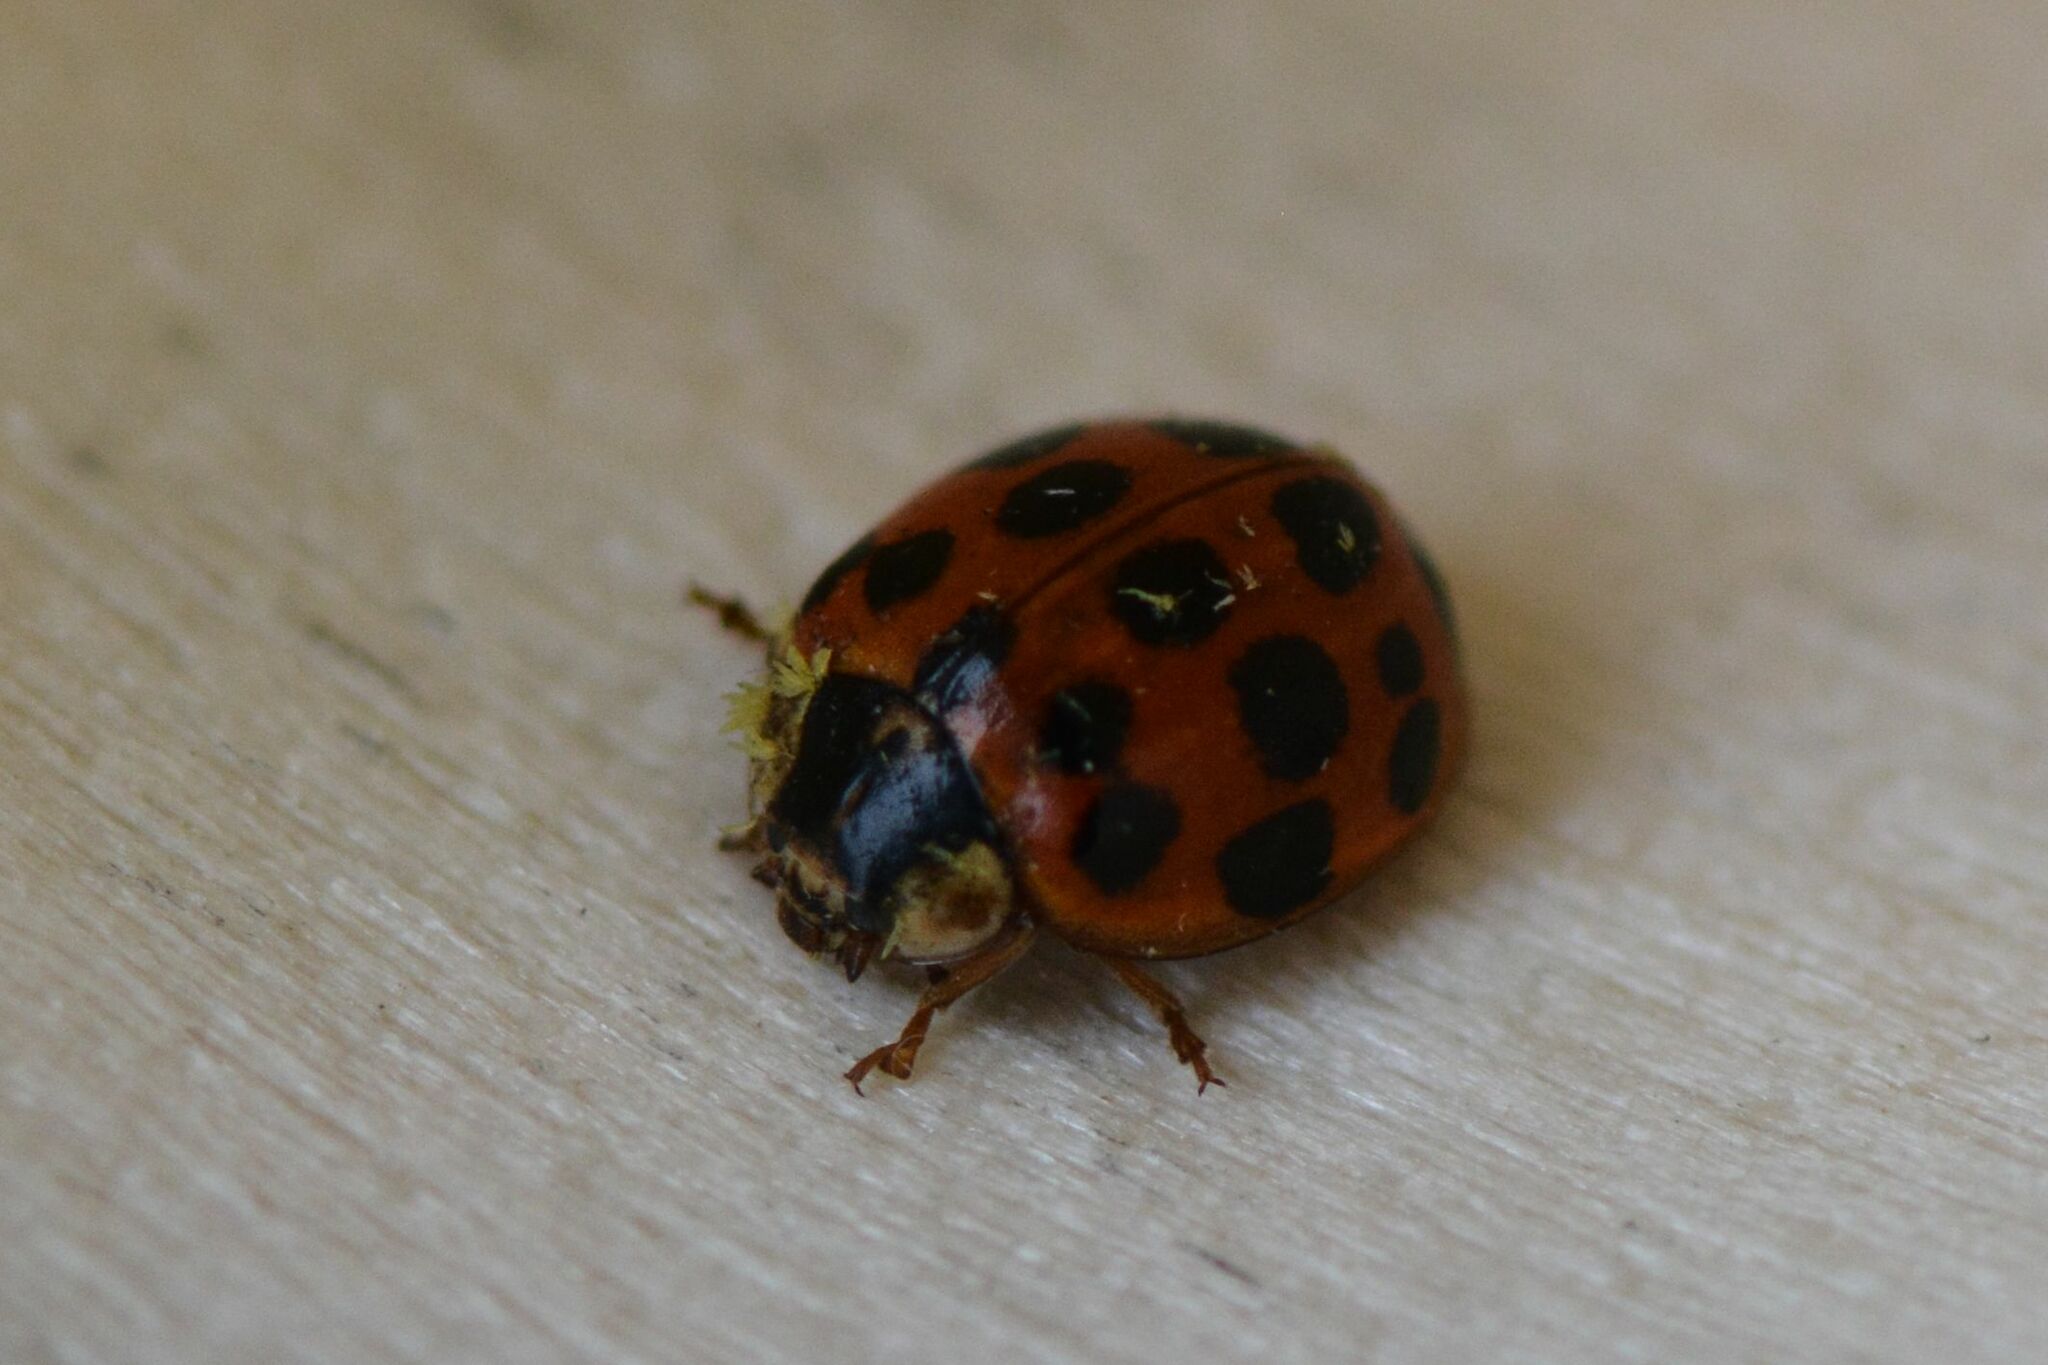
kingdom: Animalia
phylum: Arthropoda
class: Insecta
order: Coleoptera
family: Coccinellidae
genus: Harmonia
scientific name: Harmonia axyridis
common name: Harlequin ladybird
